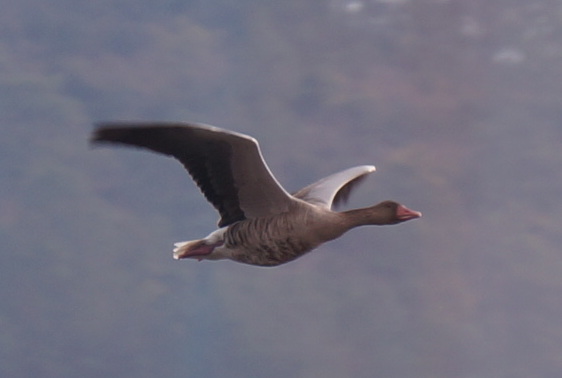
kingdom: Animalia
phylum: Chordata
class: Aves
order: Anseriformes
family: Anatidae
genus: Anser
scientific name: Anser anser
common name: Greylag goose
